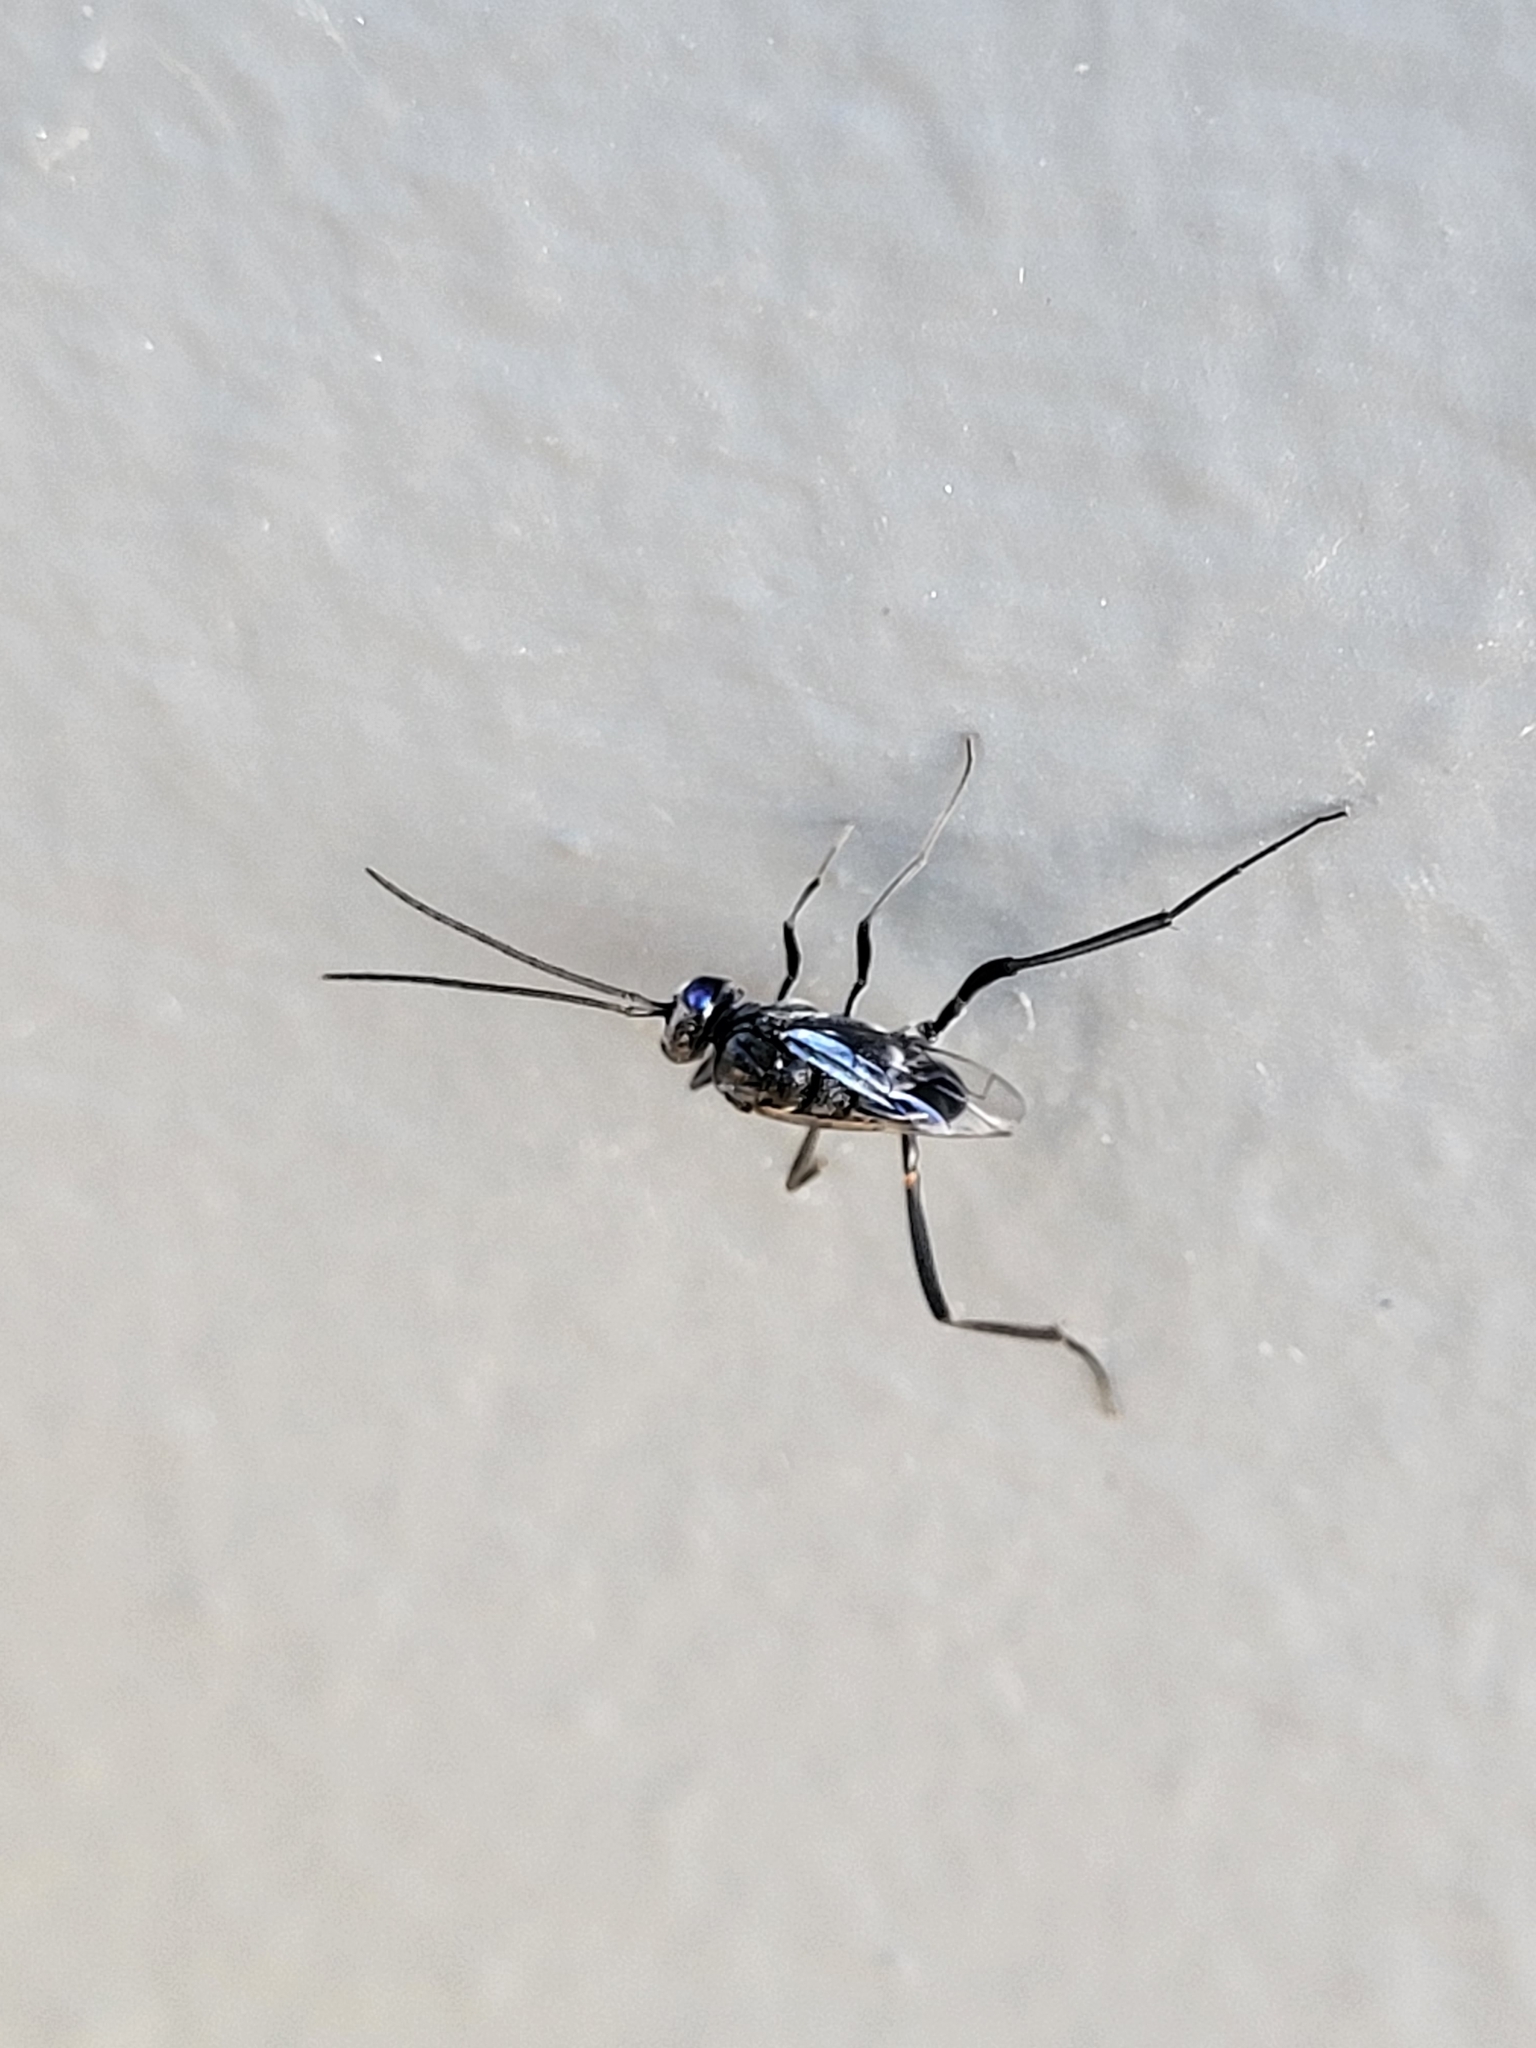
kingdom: Animalia
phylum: Arthropoda
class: Insecta
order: Hymenoptera
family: Evaniidae
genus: Evania
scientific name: Evania appendigaster
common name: Ensign wasp
